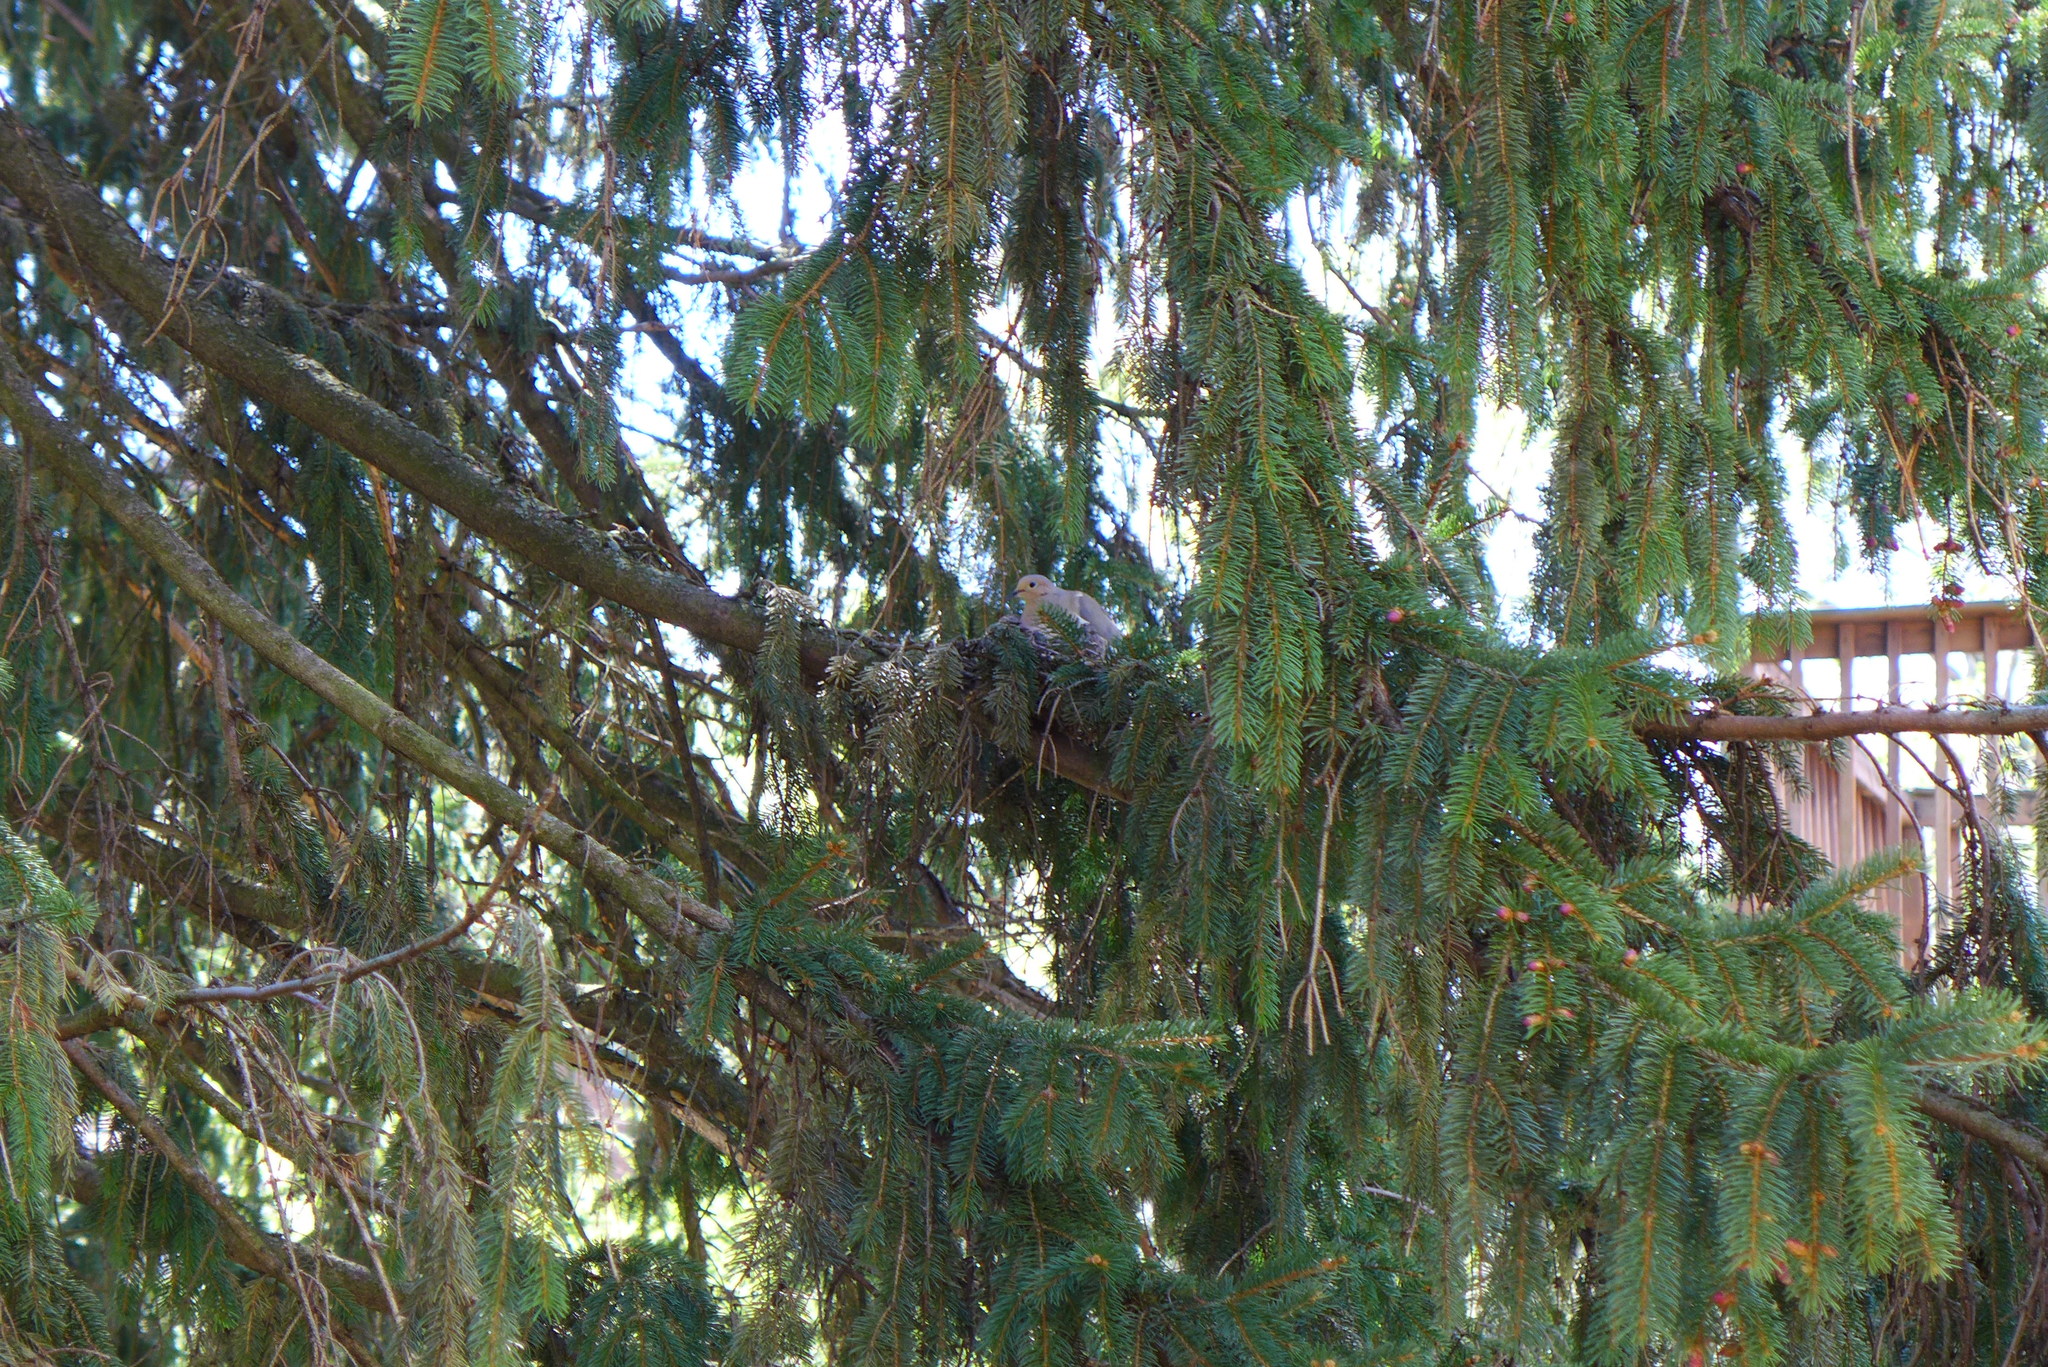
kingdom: Animalia
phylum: Chordata
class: Aves
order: Columbiformes
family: Columbidae
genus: Zenaida
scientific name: Zenaida macroura
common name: Mourning dove
